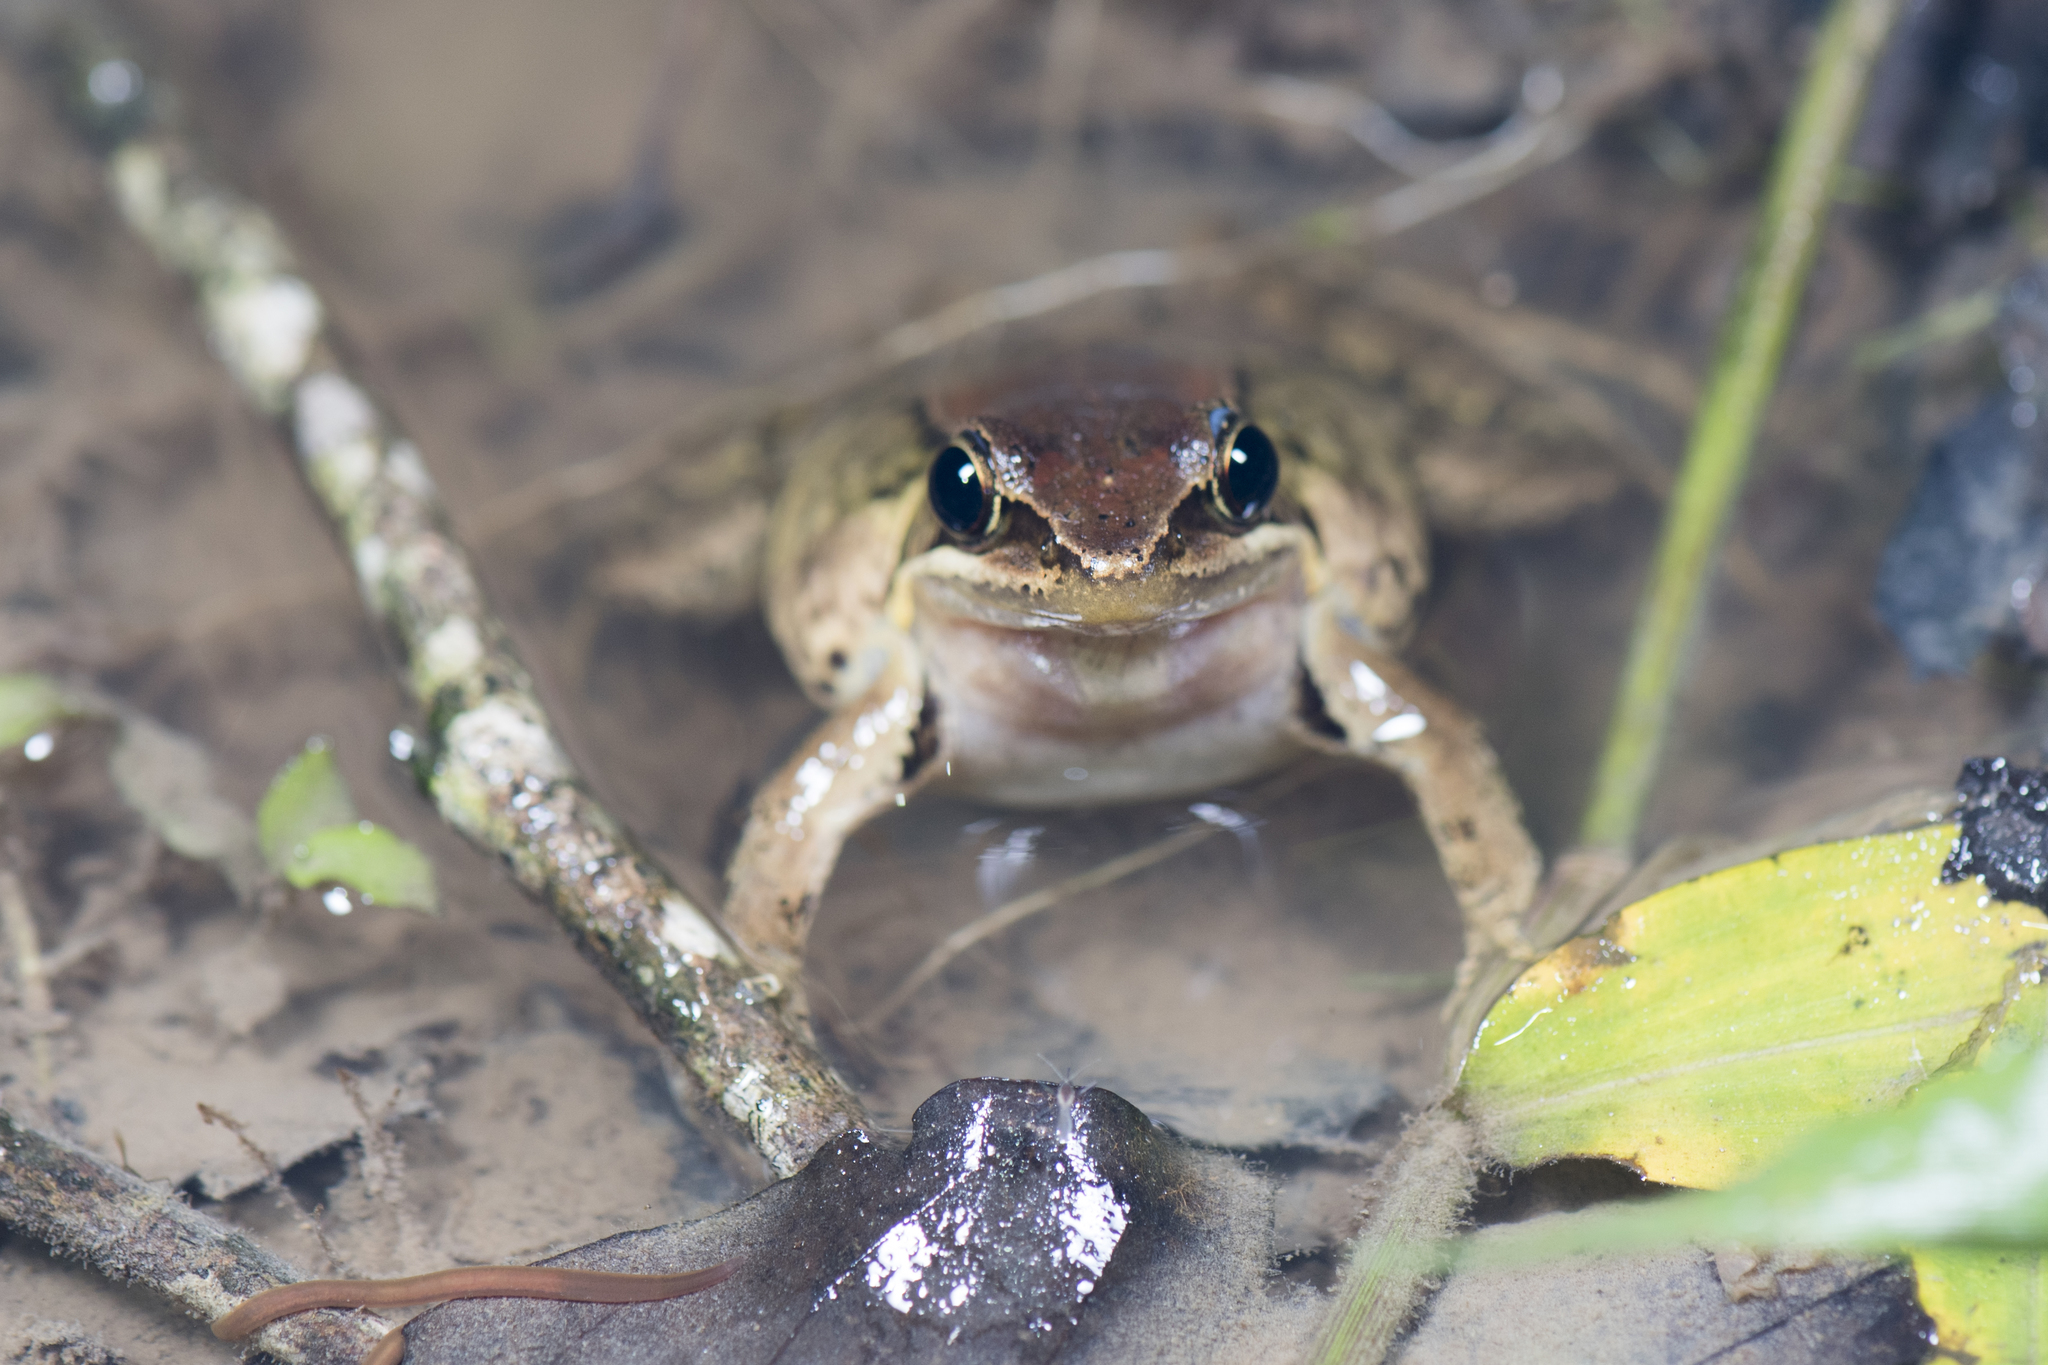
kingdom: Animalia
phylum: Chordata
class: Amphibia
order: Anura
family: Ranidae
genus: Nidirana
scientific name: Nidirana adenopleura
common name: Olive frog
